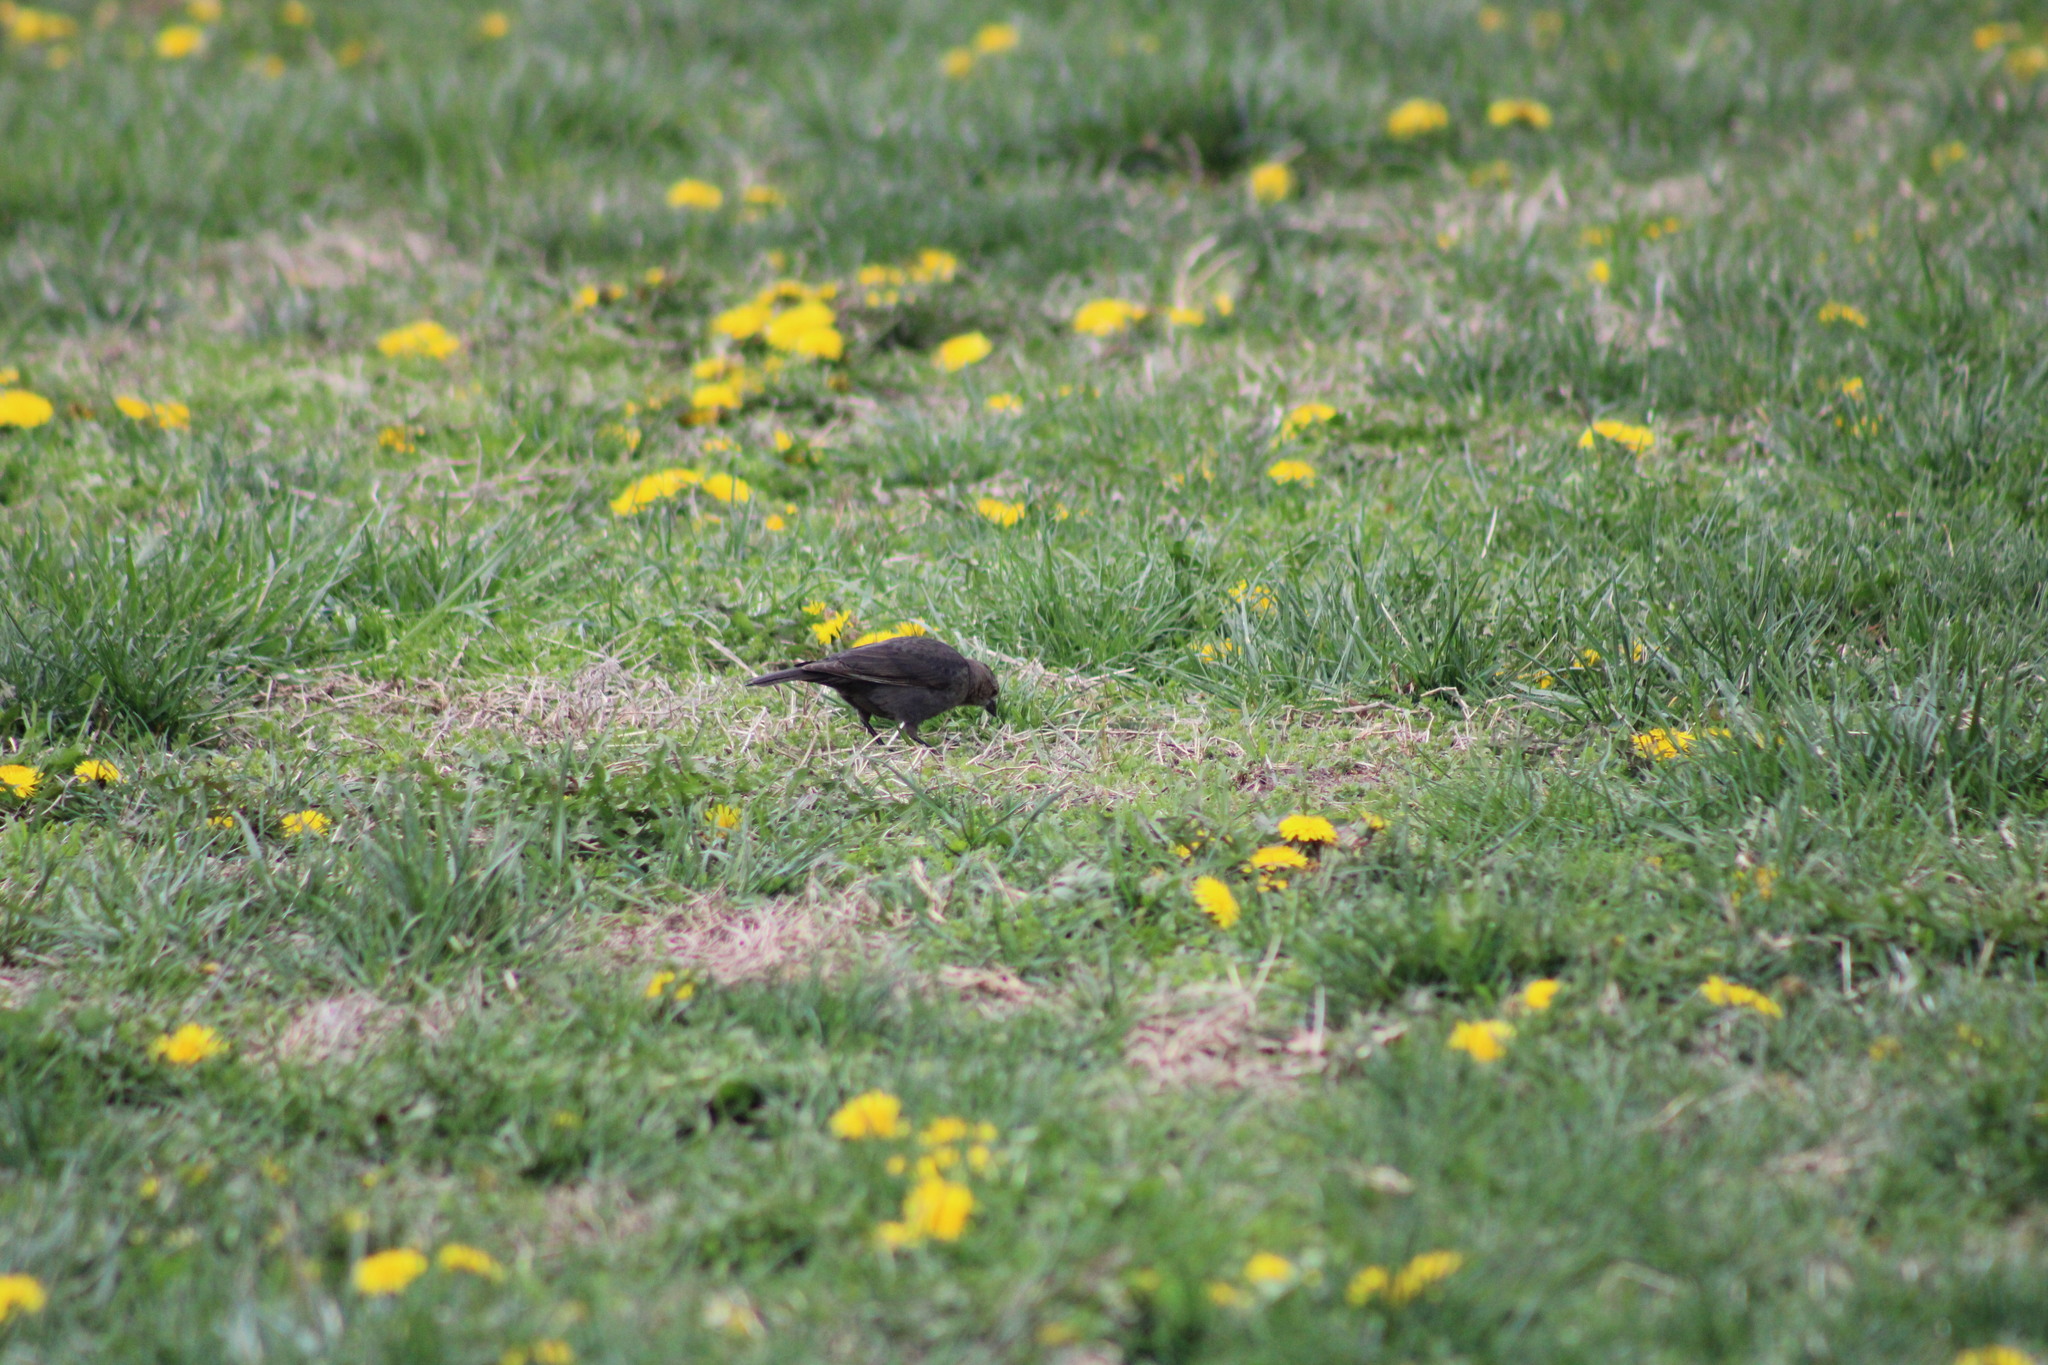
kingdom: Animalia
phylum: Chordata
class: Aves
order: Passeriformes
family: Icteridae
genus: Molothrus
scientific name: Molothrus ater
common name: Brown-headed cowbird
